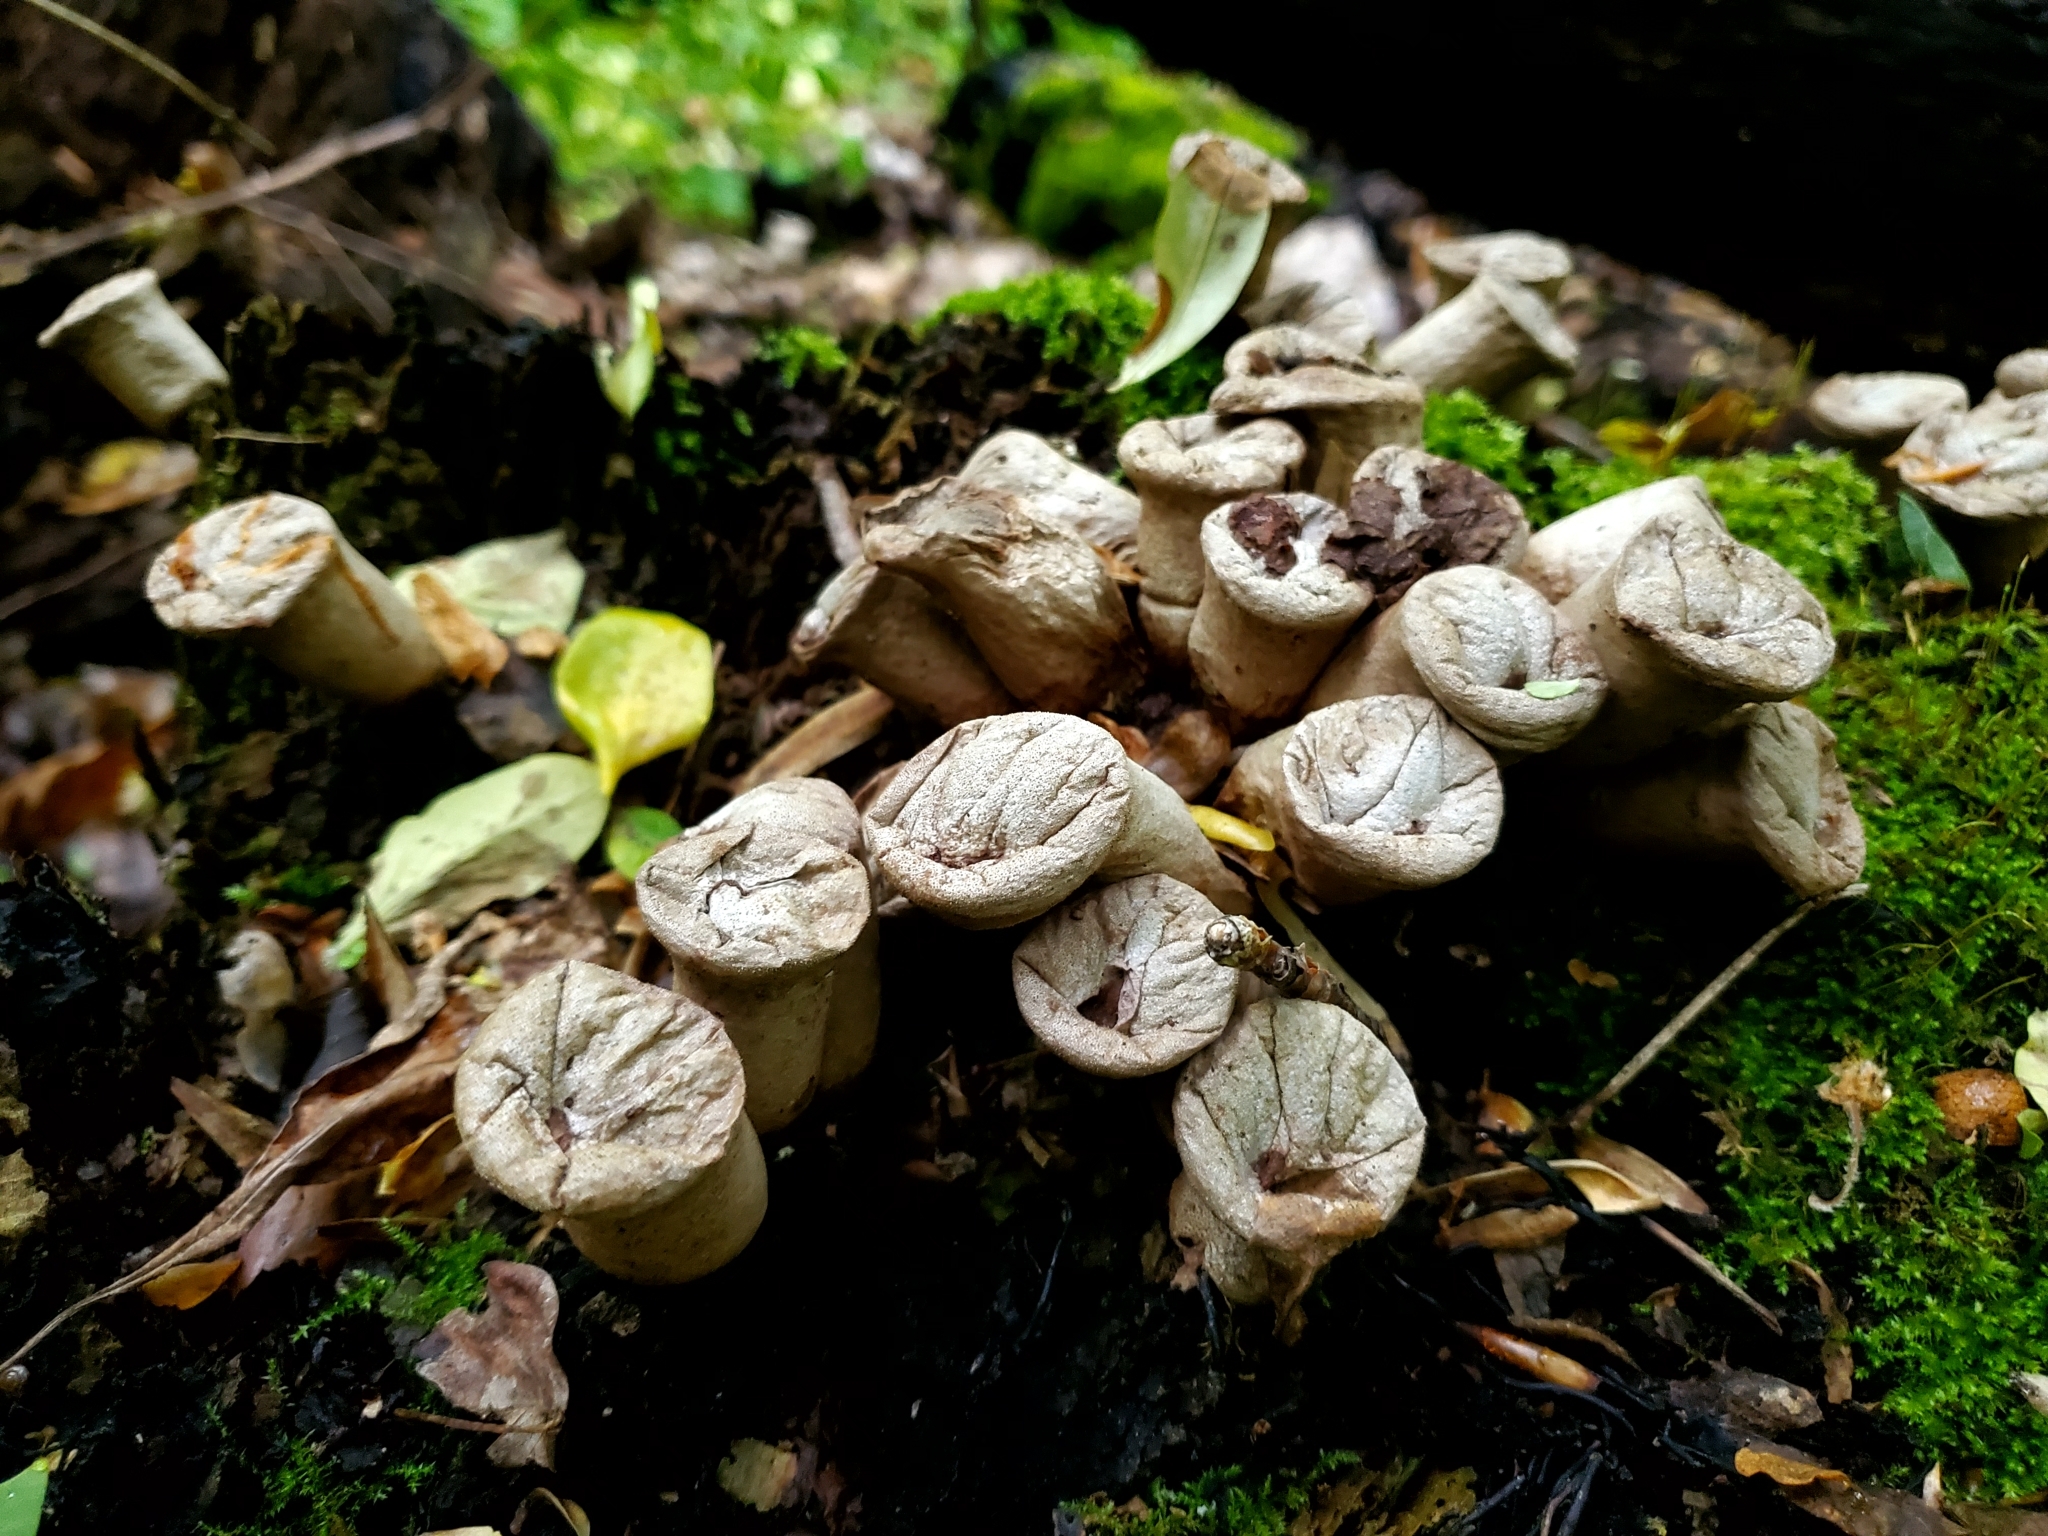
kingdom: Fungi
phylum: Basidiomycota
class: Agaricomycetes
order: Agaricales
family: Lycoperdaceae
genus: Apioperdon
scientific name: Apioperdon pyriforme
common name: Pear-shaped puffball
